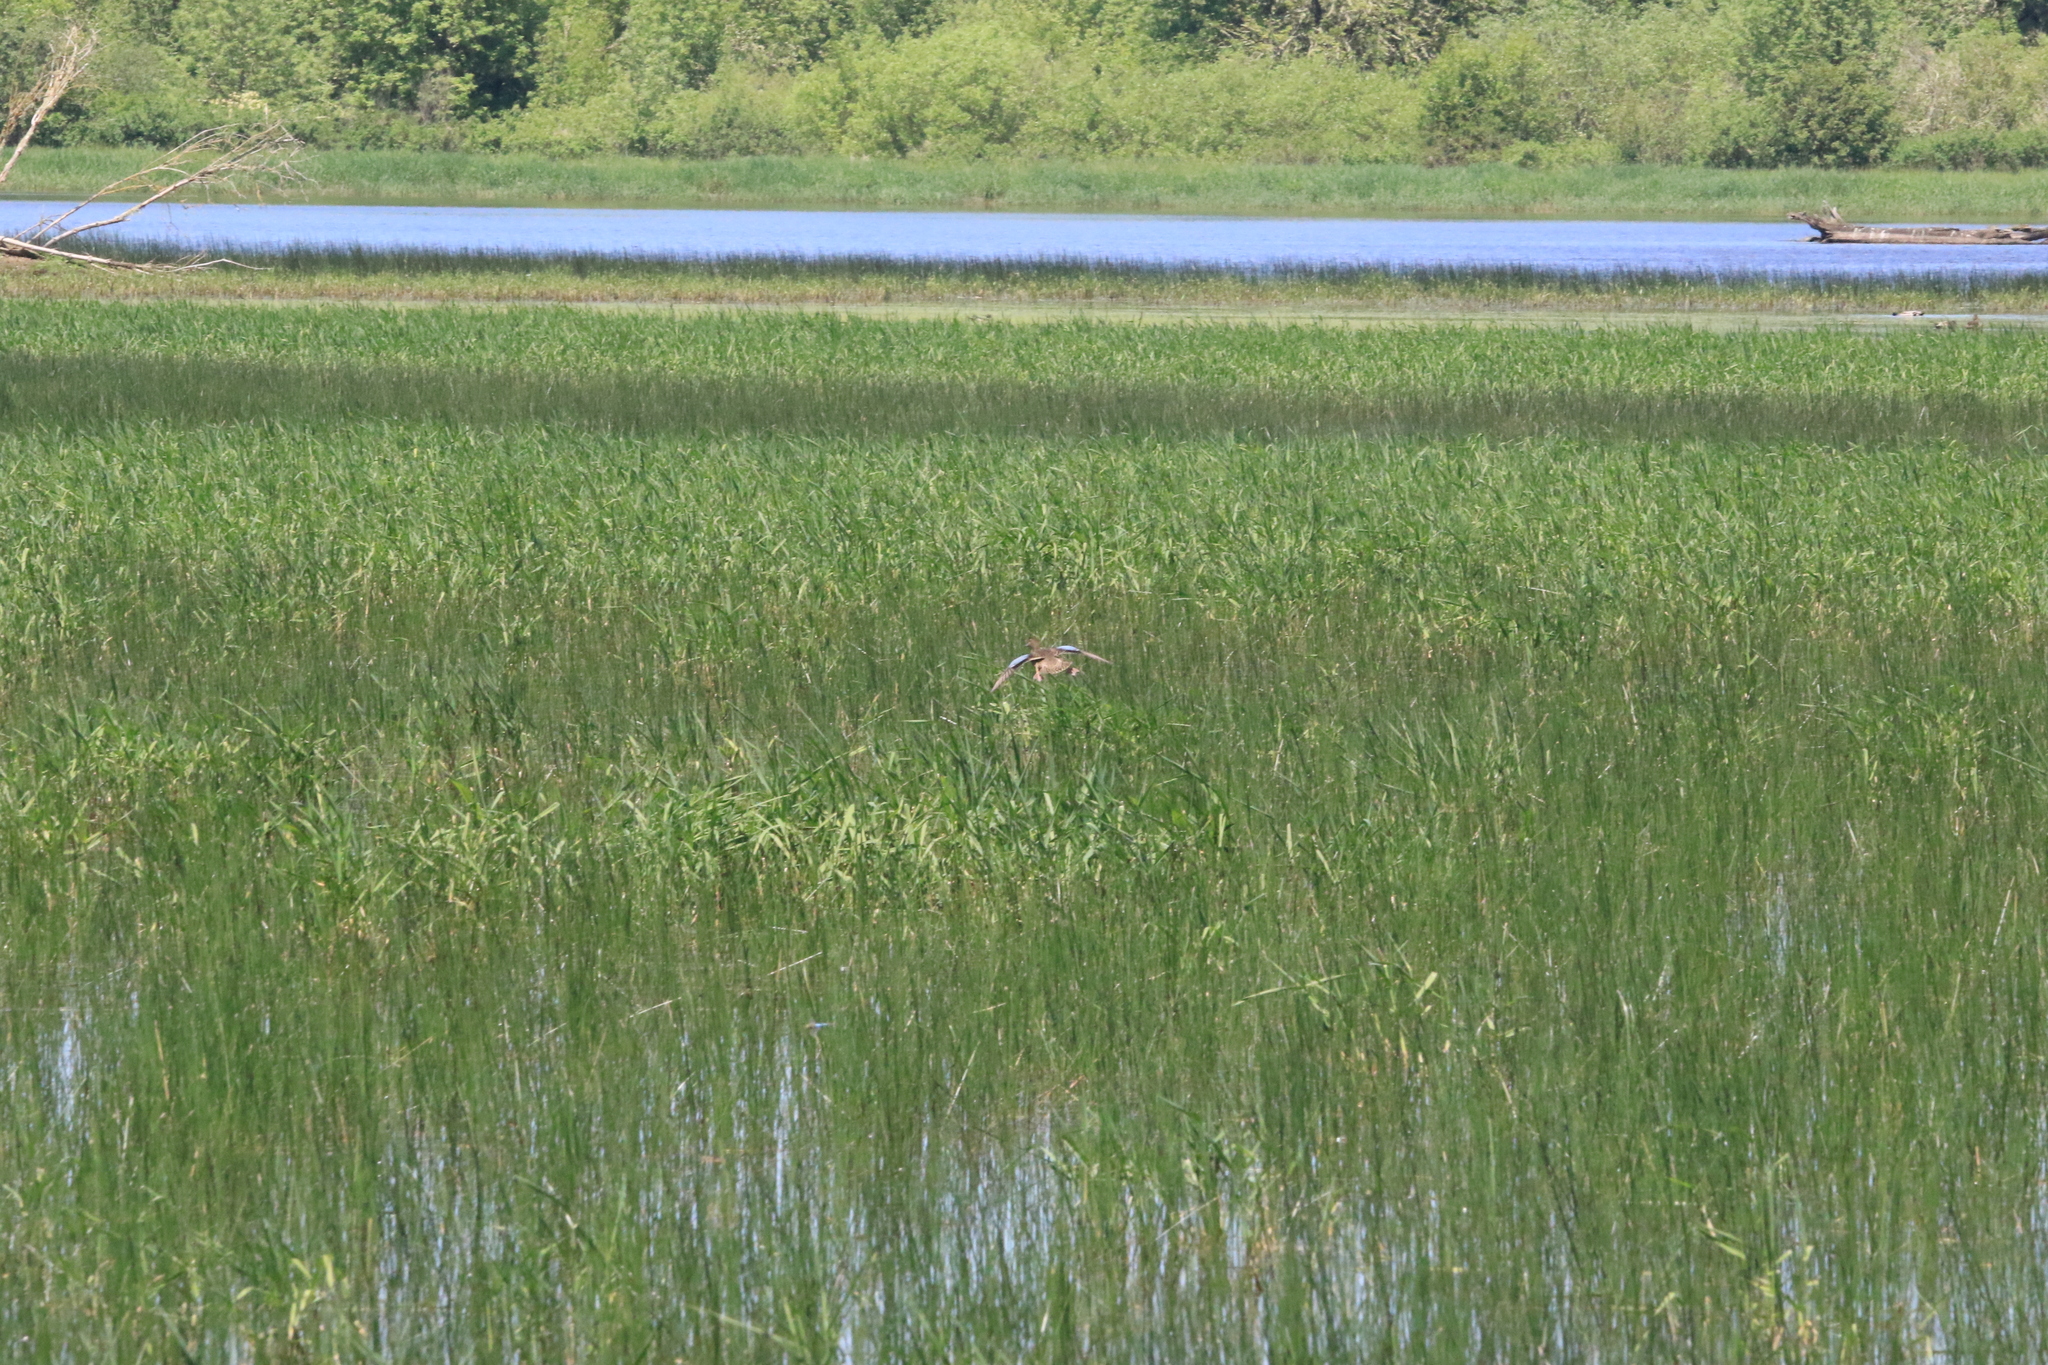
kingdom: Animalia
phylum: Chordata
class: Aves
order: Anseriformes
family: Anatidae
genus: Spatula
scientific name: Spatula cyanoptera
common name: Cinnamon teal
